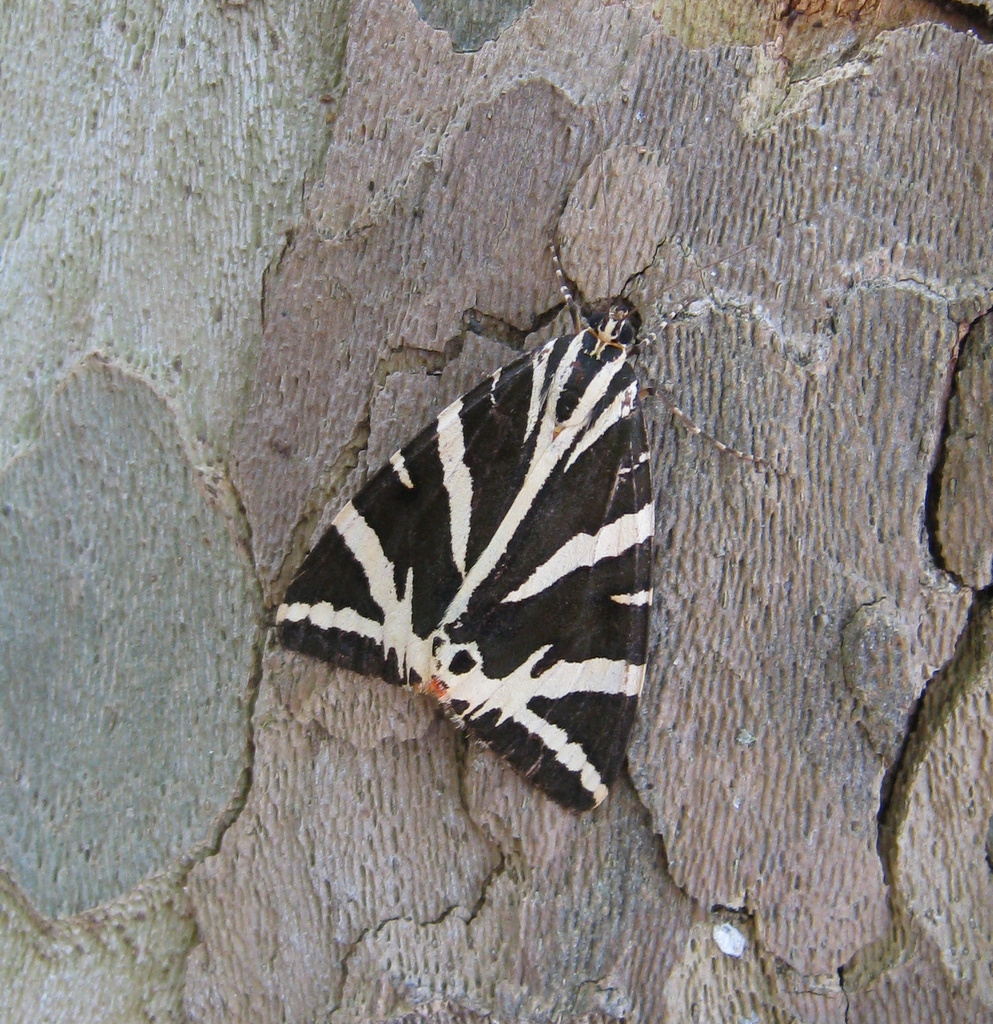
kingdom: Animalia
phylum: Arthropoda
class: Insecta
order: Lepidoptera
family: Erebidae
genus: Euplagia
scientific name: Euplagia quadripunctaria
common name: Jersey tiger
